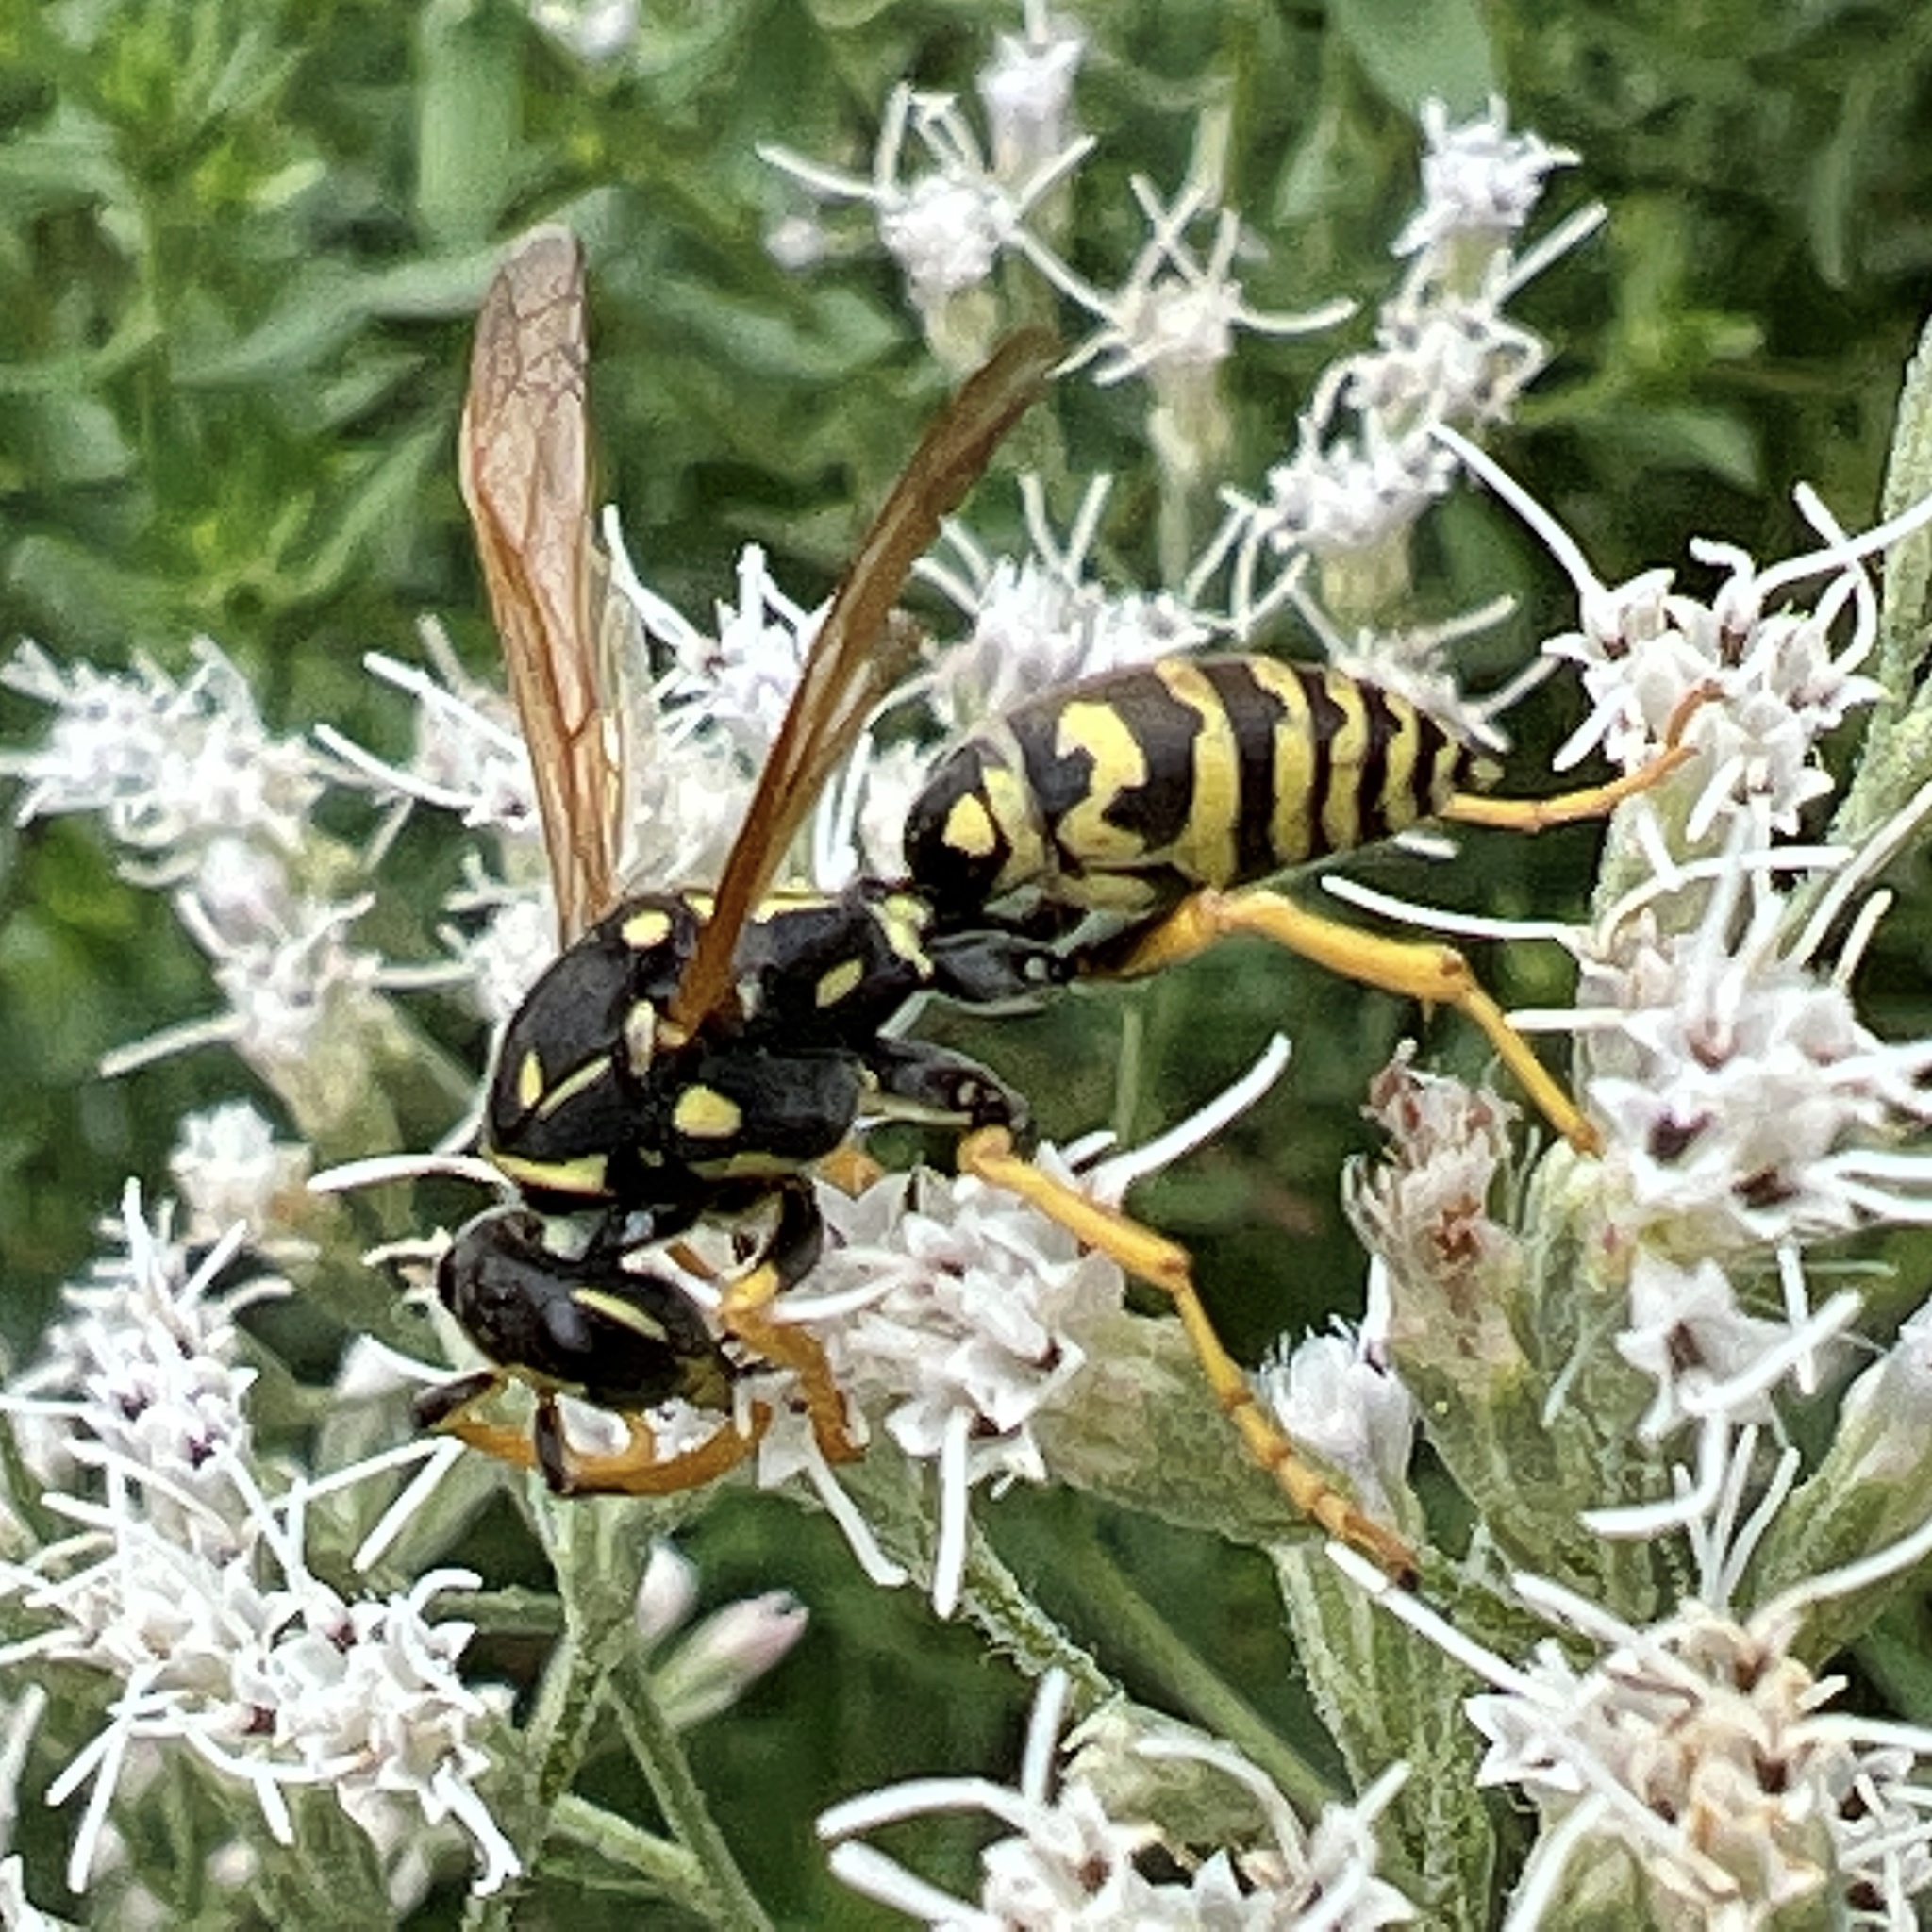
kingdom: Animalia
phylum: Arthropoda
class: Insecta
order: Hymenoptera
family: Eumenidae
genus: Polistes
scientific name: Polistes dominula
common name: Paper wasp
